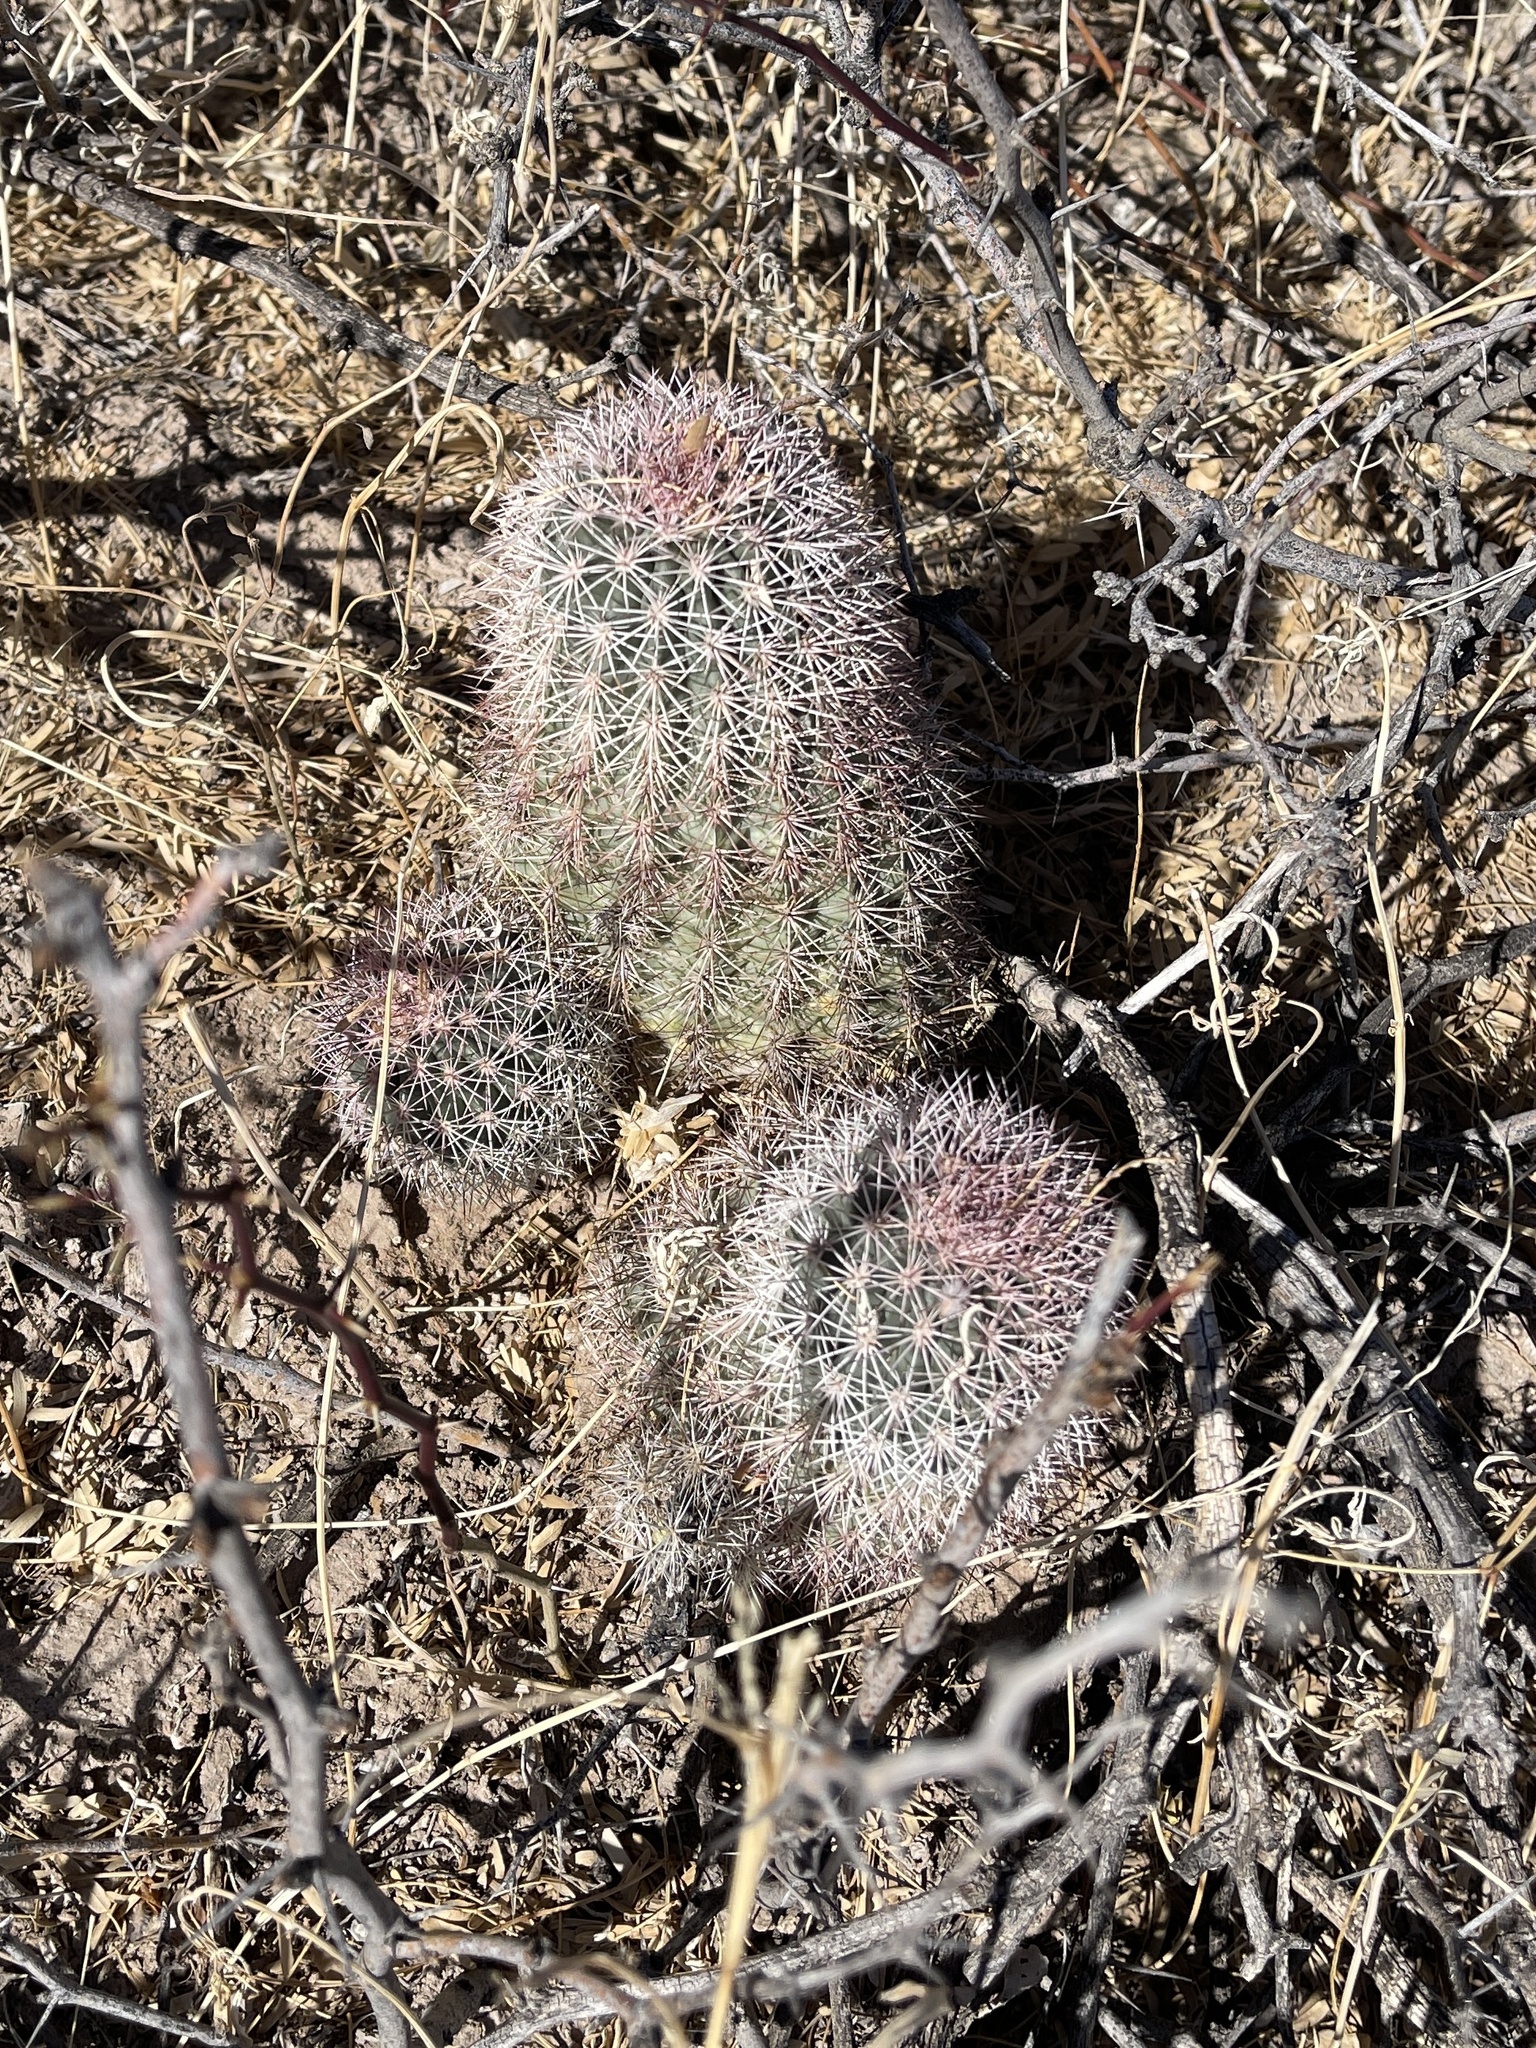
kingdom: Plantae
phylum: Tracheophyta
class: Magnoliopsida
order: Caryophyllales
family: Cactaceae
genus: Echinocereus
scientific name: Echinocereus dasyacanthus
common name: Spiny hedgehog cactus
